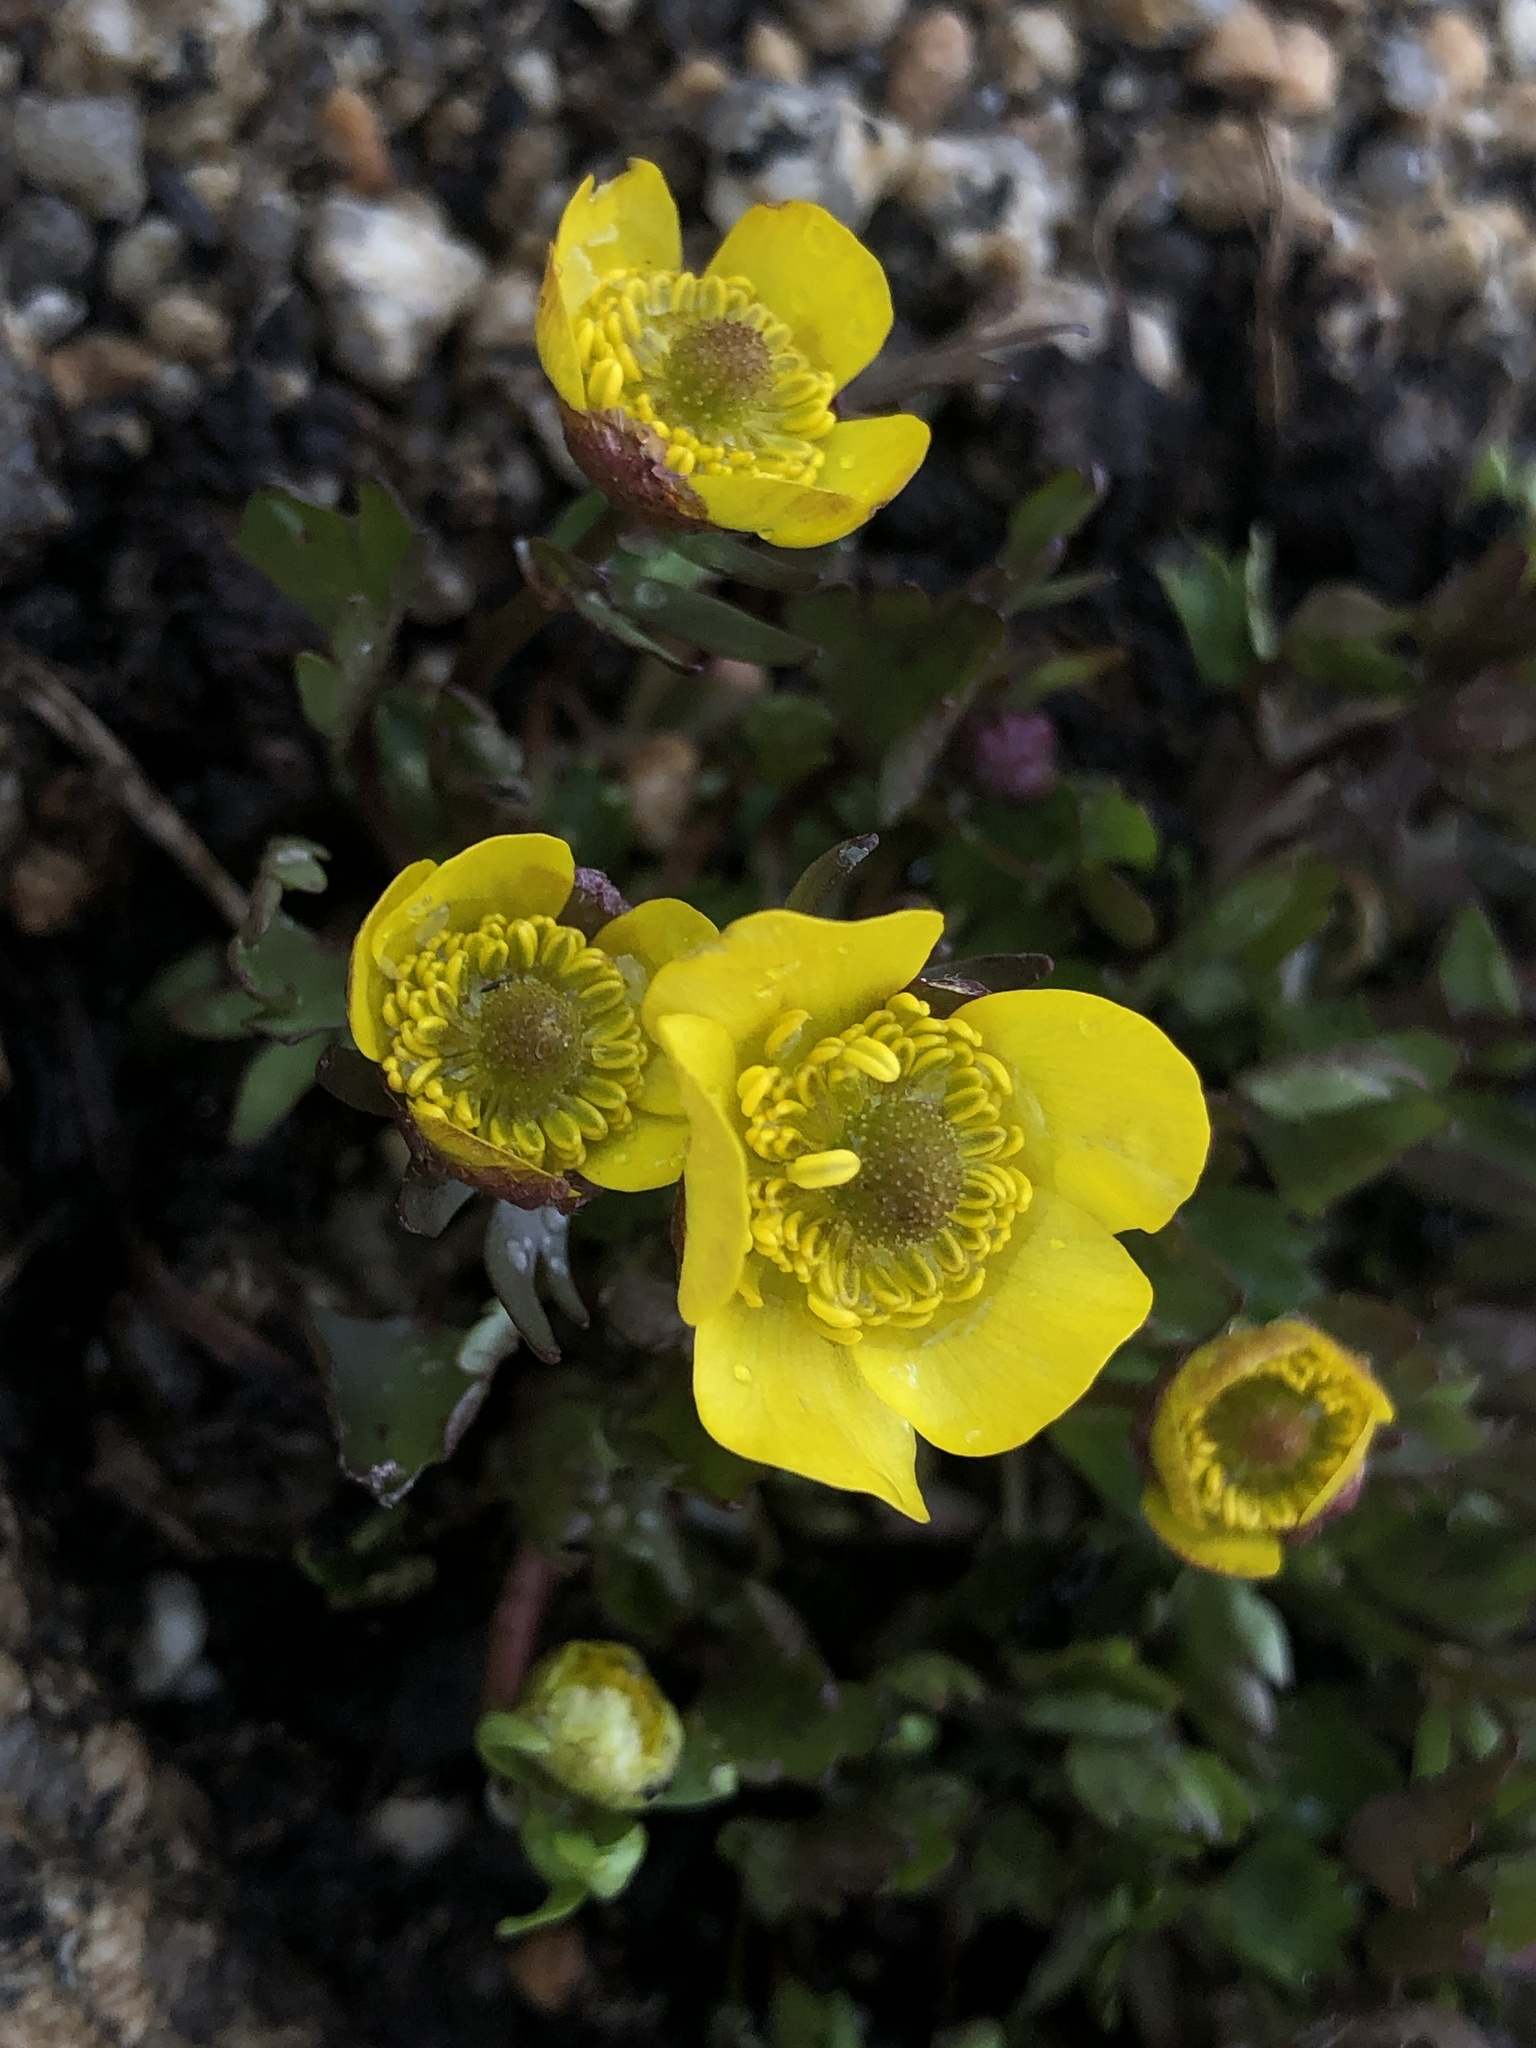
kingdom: Plantae
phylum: Tracheophyta
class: Magnoliopsida
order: Ranunculales
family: Ranunculaceae
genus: Ranunculus
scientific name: Ranunculus eschscholtzii
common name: Eschscholtz's buttercup
